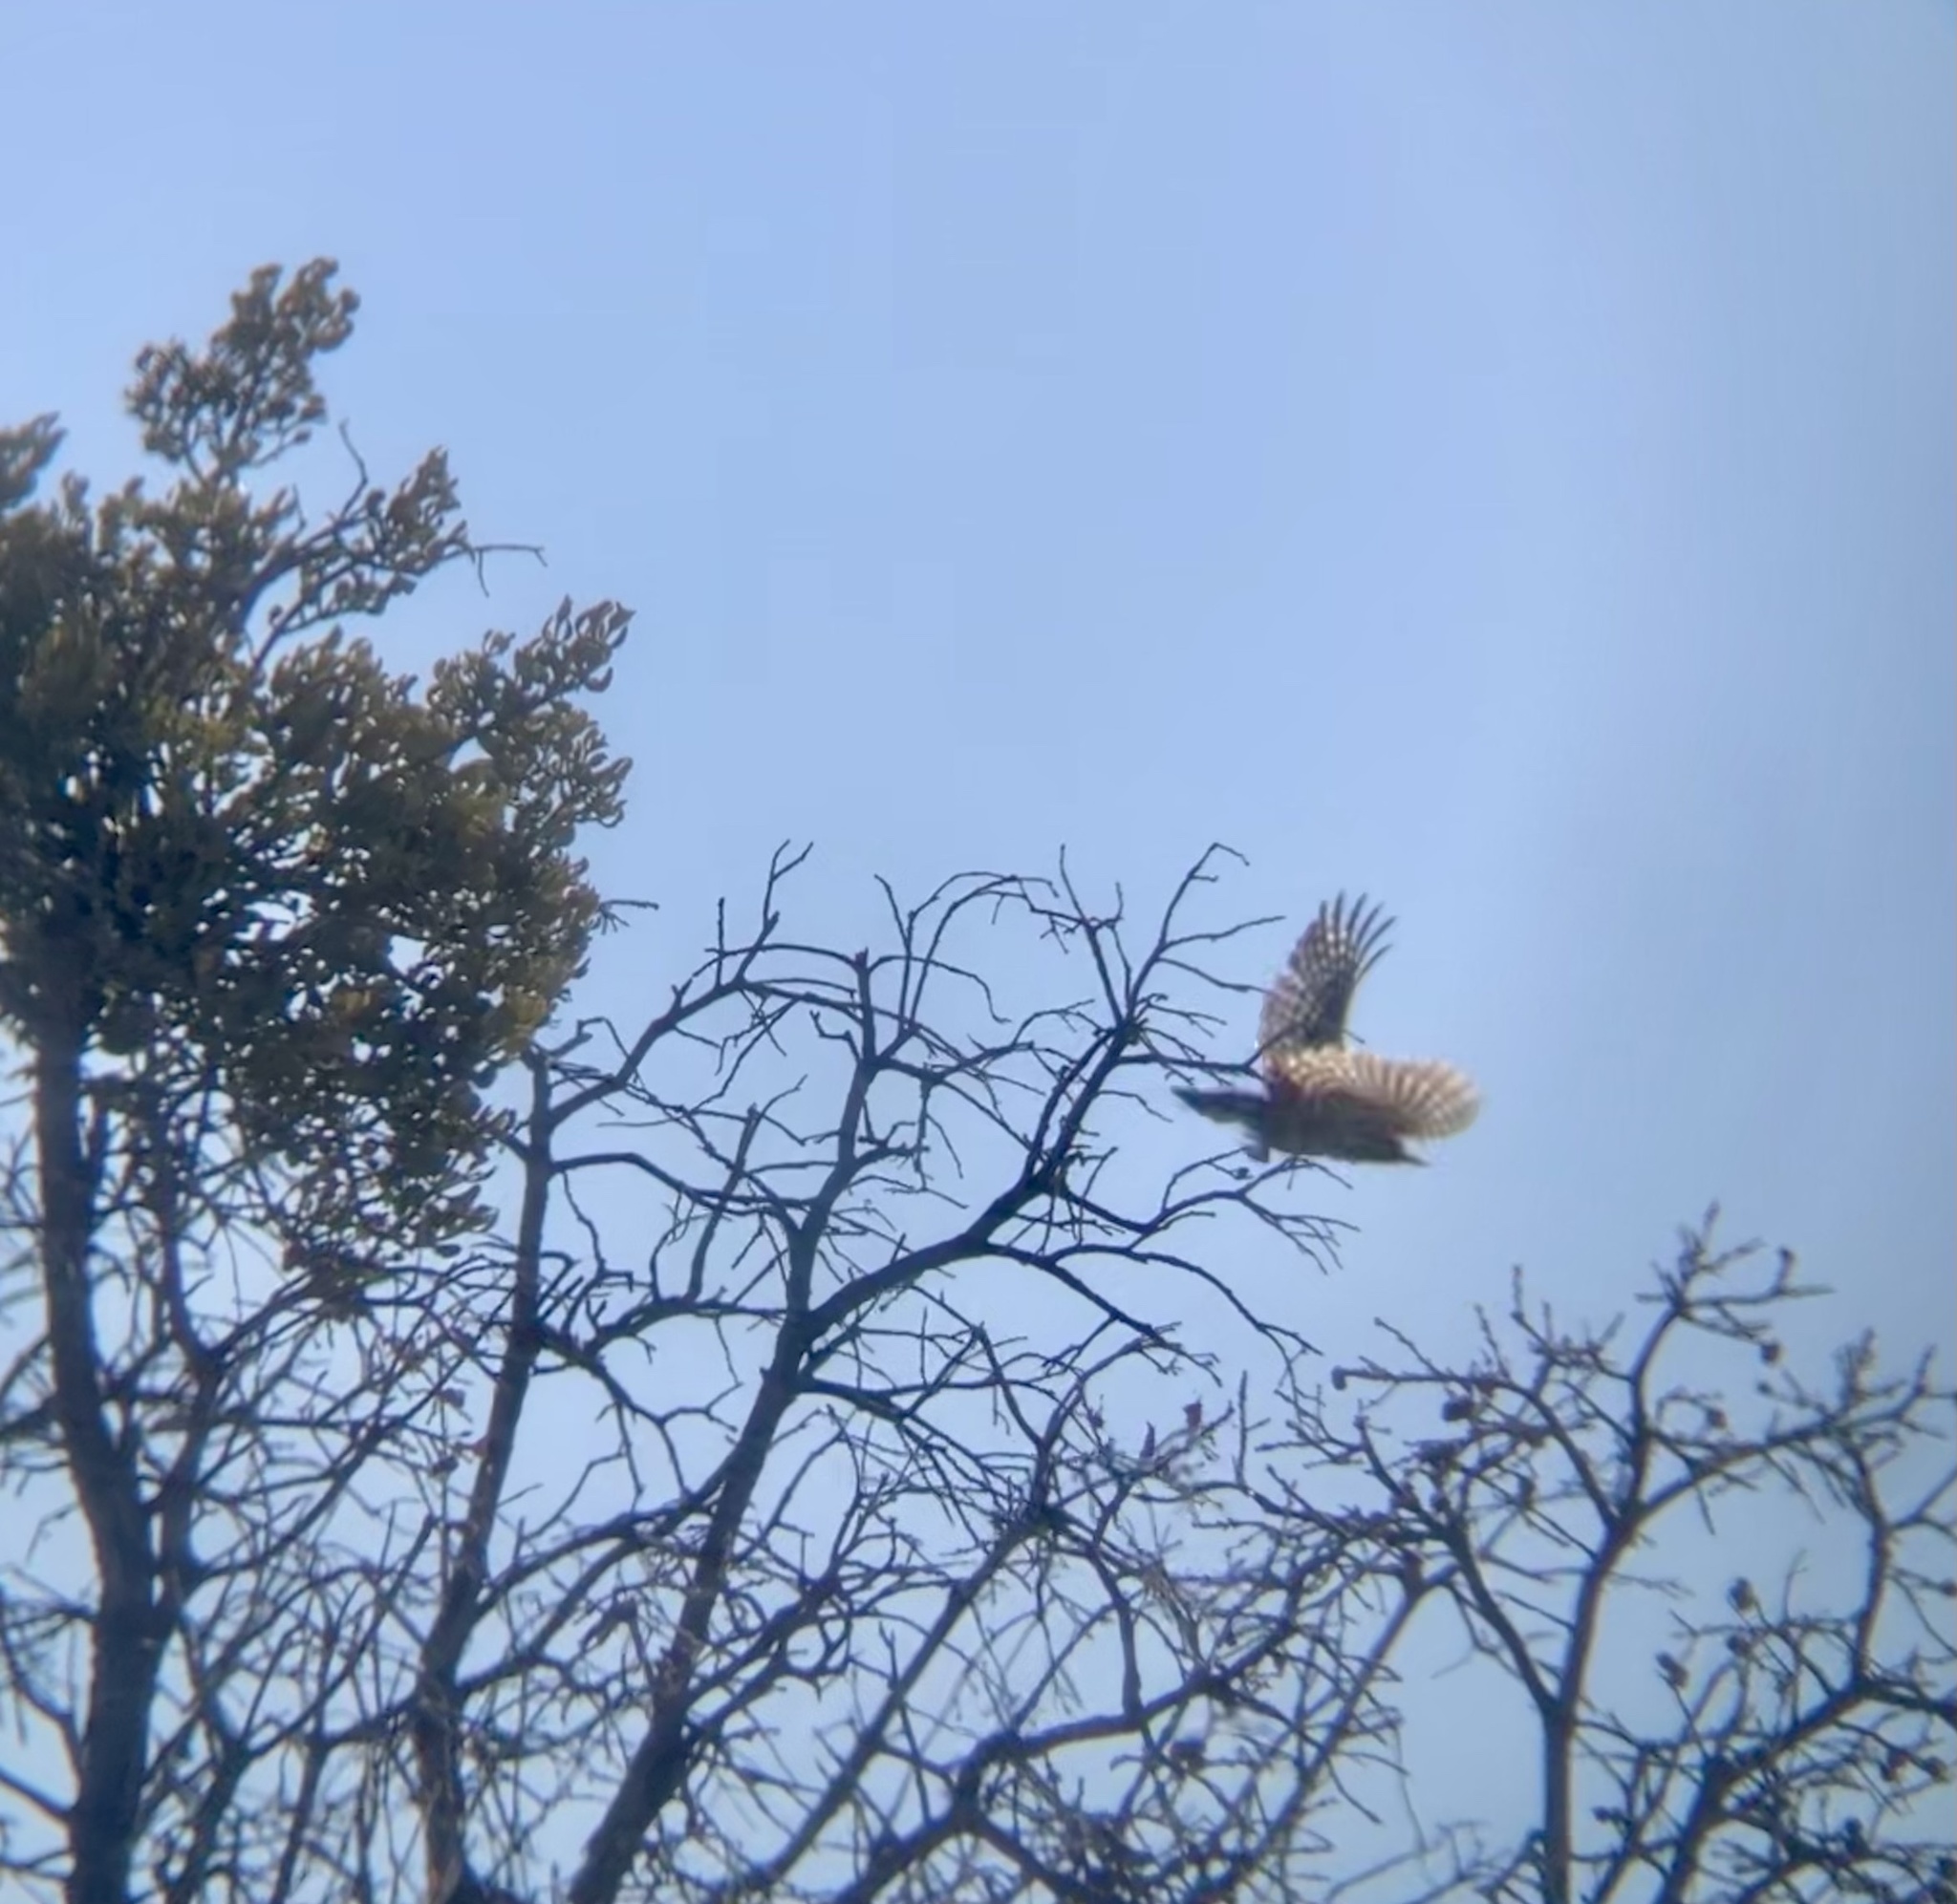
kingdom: Animalia
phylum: Chordata
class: Aves
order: Piciformes
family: Picidae
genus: Dryobates
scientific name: Dryobates scalaris
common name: Ladder-backed woodpecker
